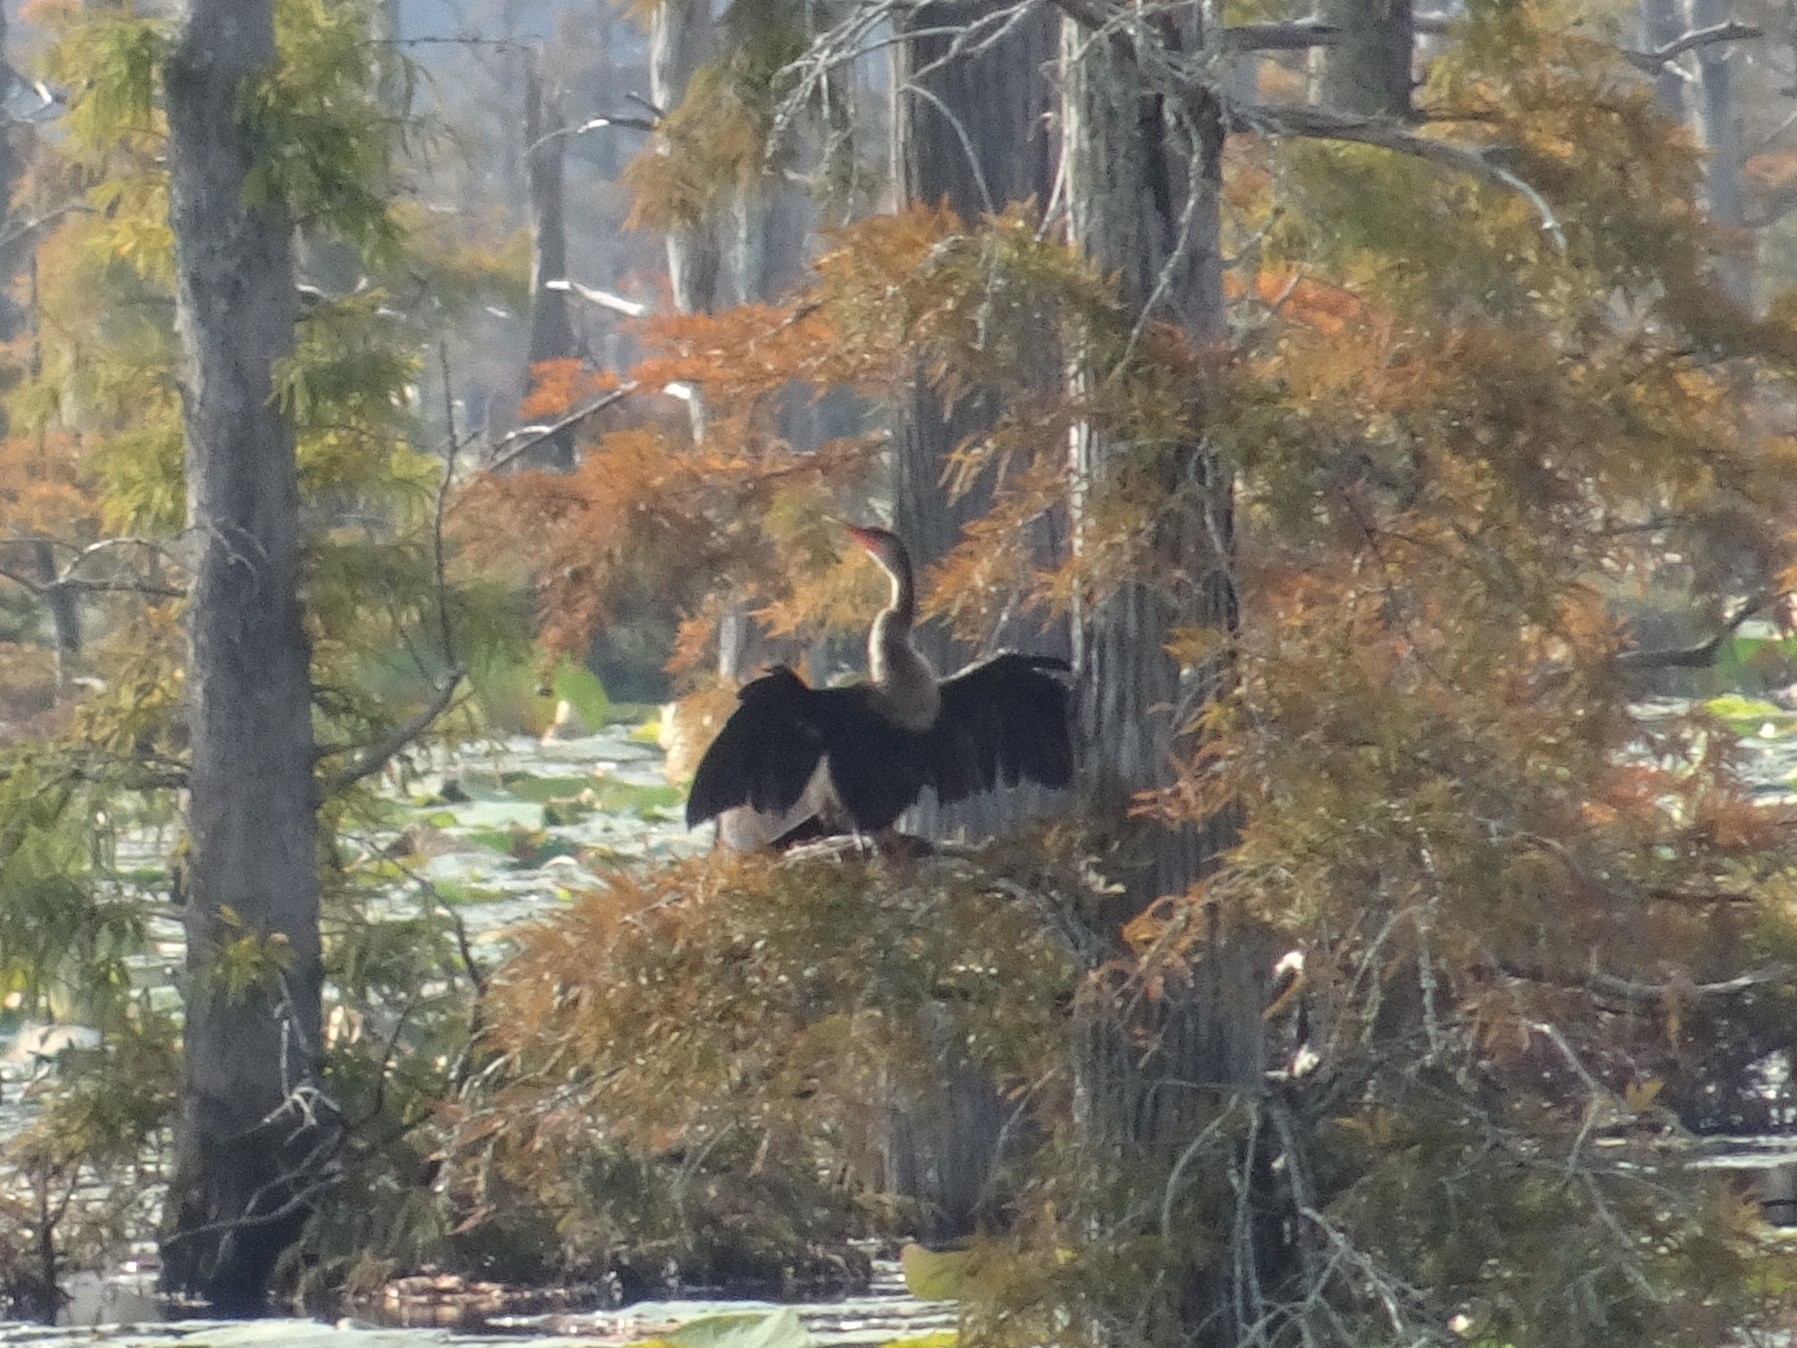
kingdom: Animalia
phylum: Chordata
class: Aves
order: Suliformes
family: Anhingidae
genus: Anhinga
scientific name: Anhinga anhinga
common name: Anhinga
